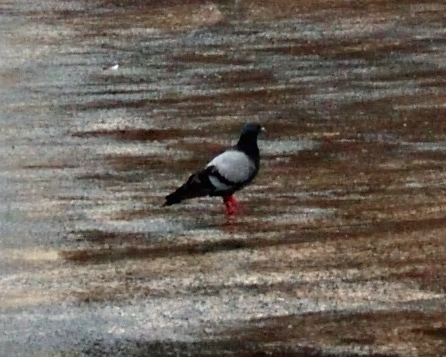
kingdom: Animalia
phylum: Chordata
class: Aves
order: Columbiformes
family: Columbidae
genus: Columba
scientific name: Columba livia
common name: Rock pigeon
